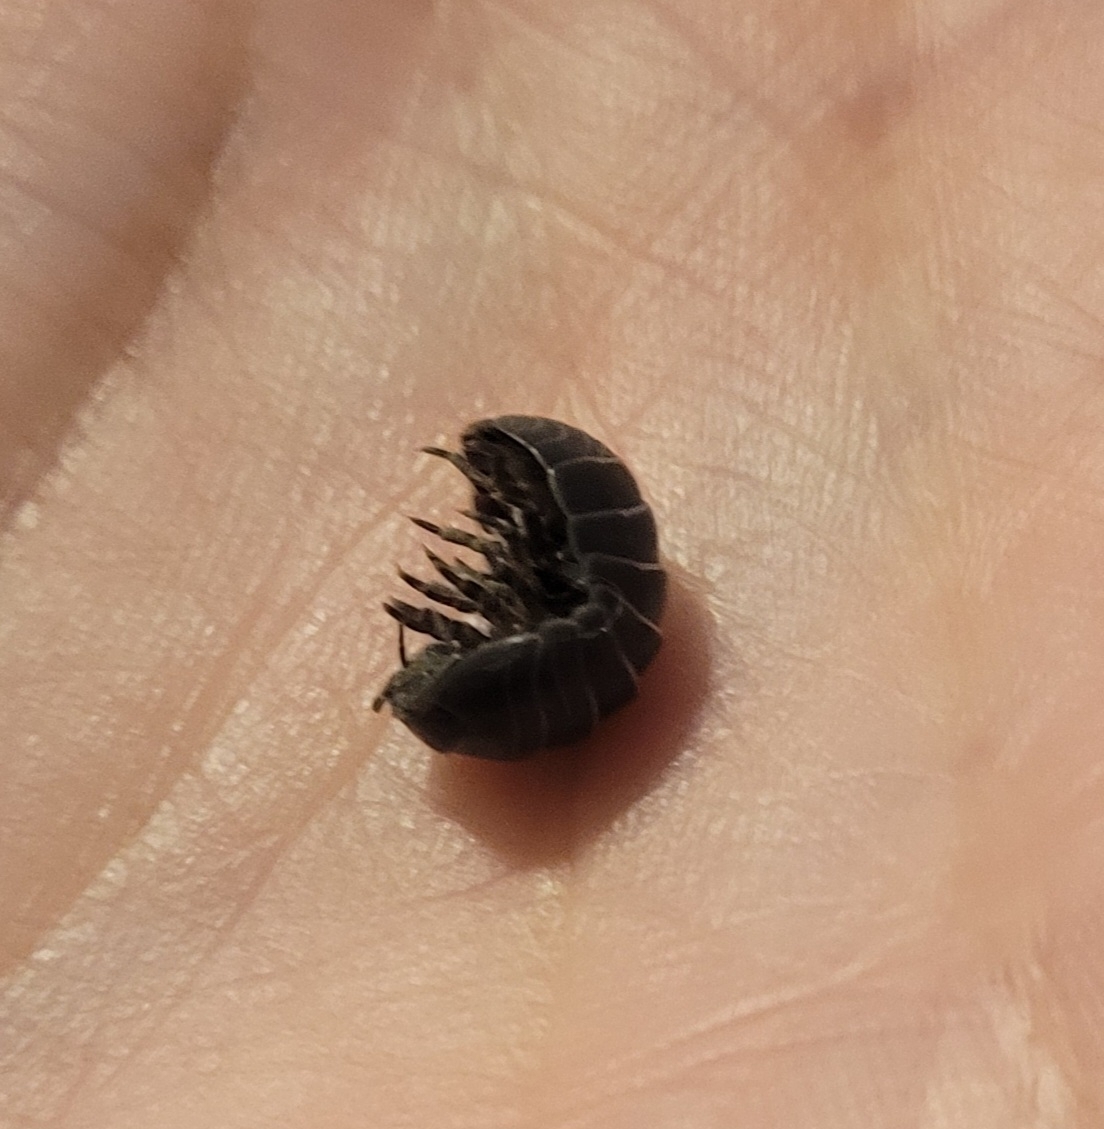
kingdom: Animalia
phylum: Arthropoda
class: Malacostraca
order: Isopoda
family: Armadillidiidae
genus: Armadillidium
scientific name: Armadillidium vulgare
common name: Common pill woodlouse
